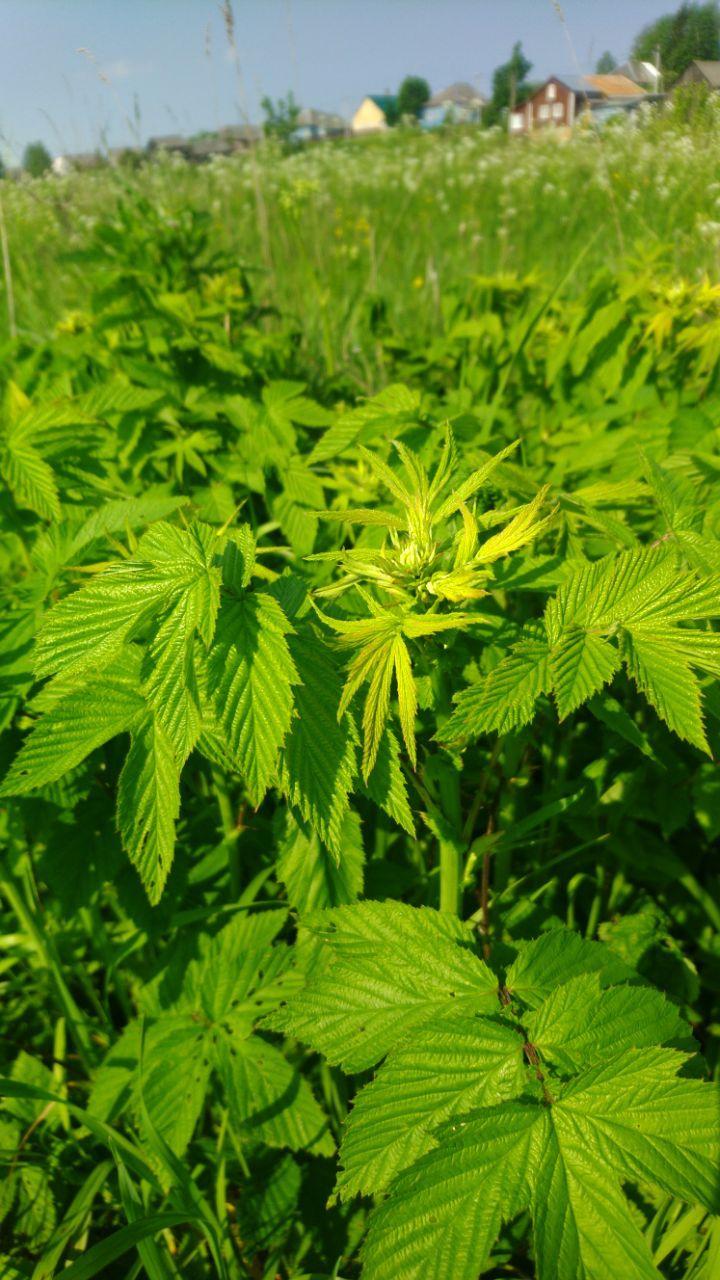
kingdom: Plantae
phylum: Tracheophyta
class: Magnoliopsida
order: Rosales
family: Rosaceae
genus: Filipendula
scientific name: Filipendula ulmaria
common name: Meadowsweet
